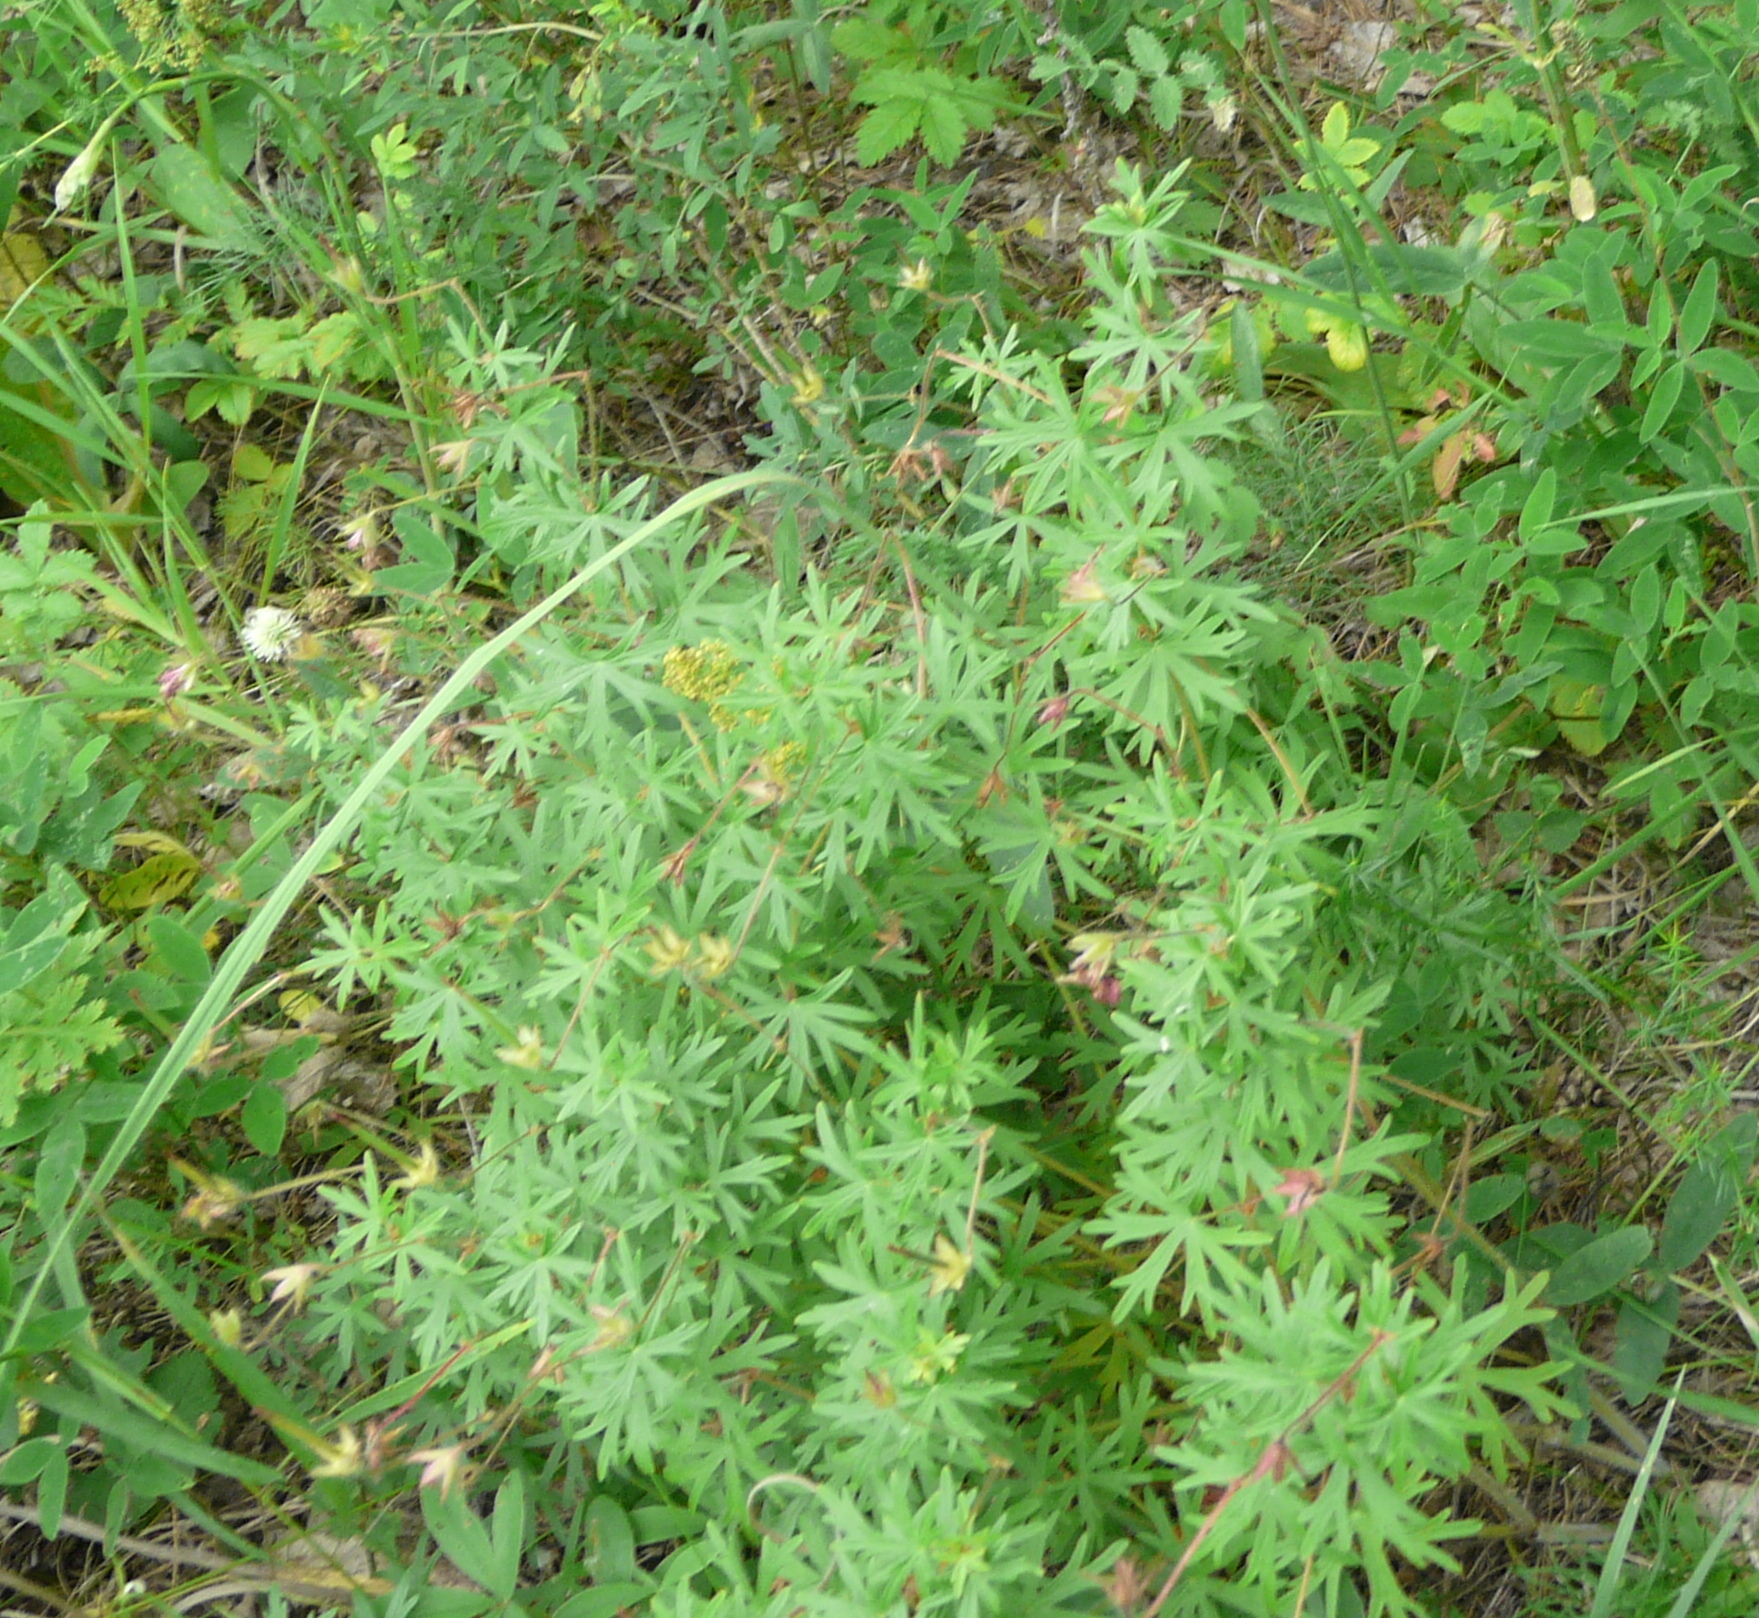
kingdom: Plantae
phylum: Tracheophyta
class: Magnoliopsida
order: Geraniales
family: Geraniaceae
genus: Geranium
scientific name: Geranium sanguineum
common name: Bloody crane's-bill
